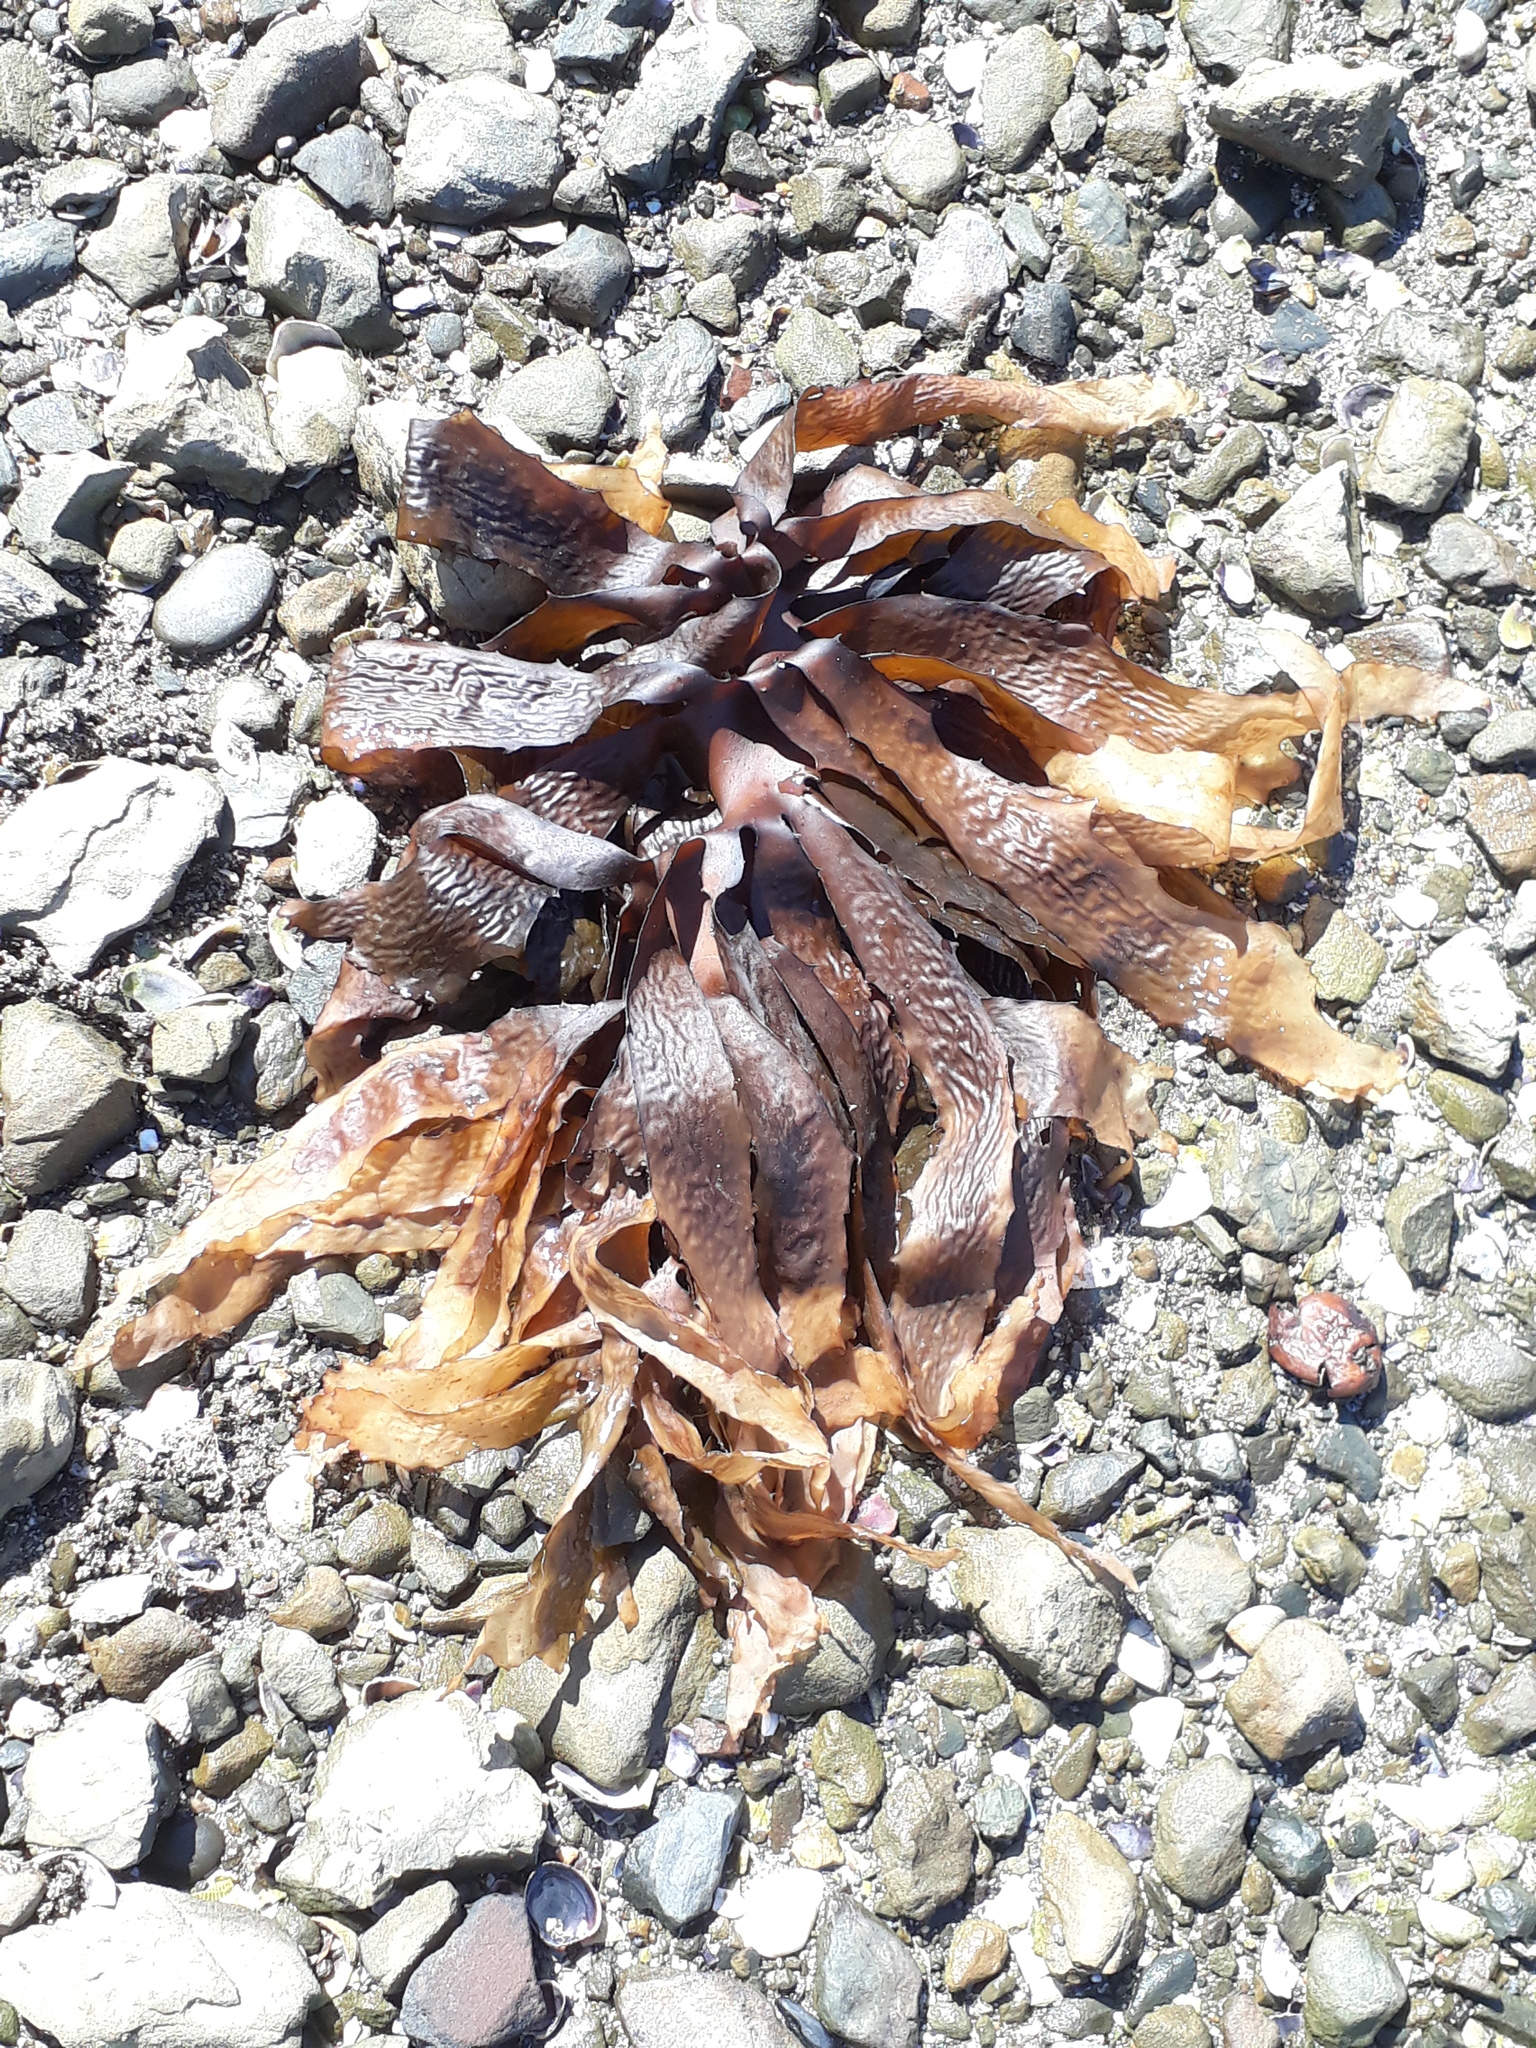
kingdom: Chromista
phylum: Ochrophyta
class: Phaeophyceae
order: Laminariales
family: Lessoniaceae
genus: Ecklonia
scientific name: Ecklonia radiata
